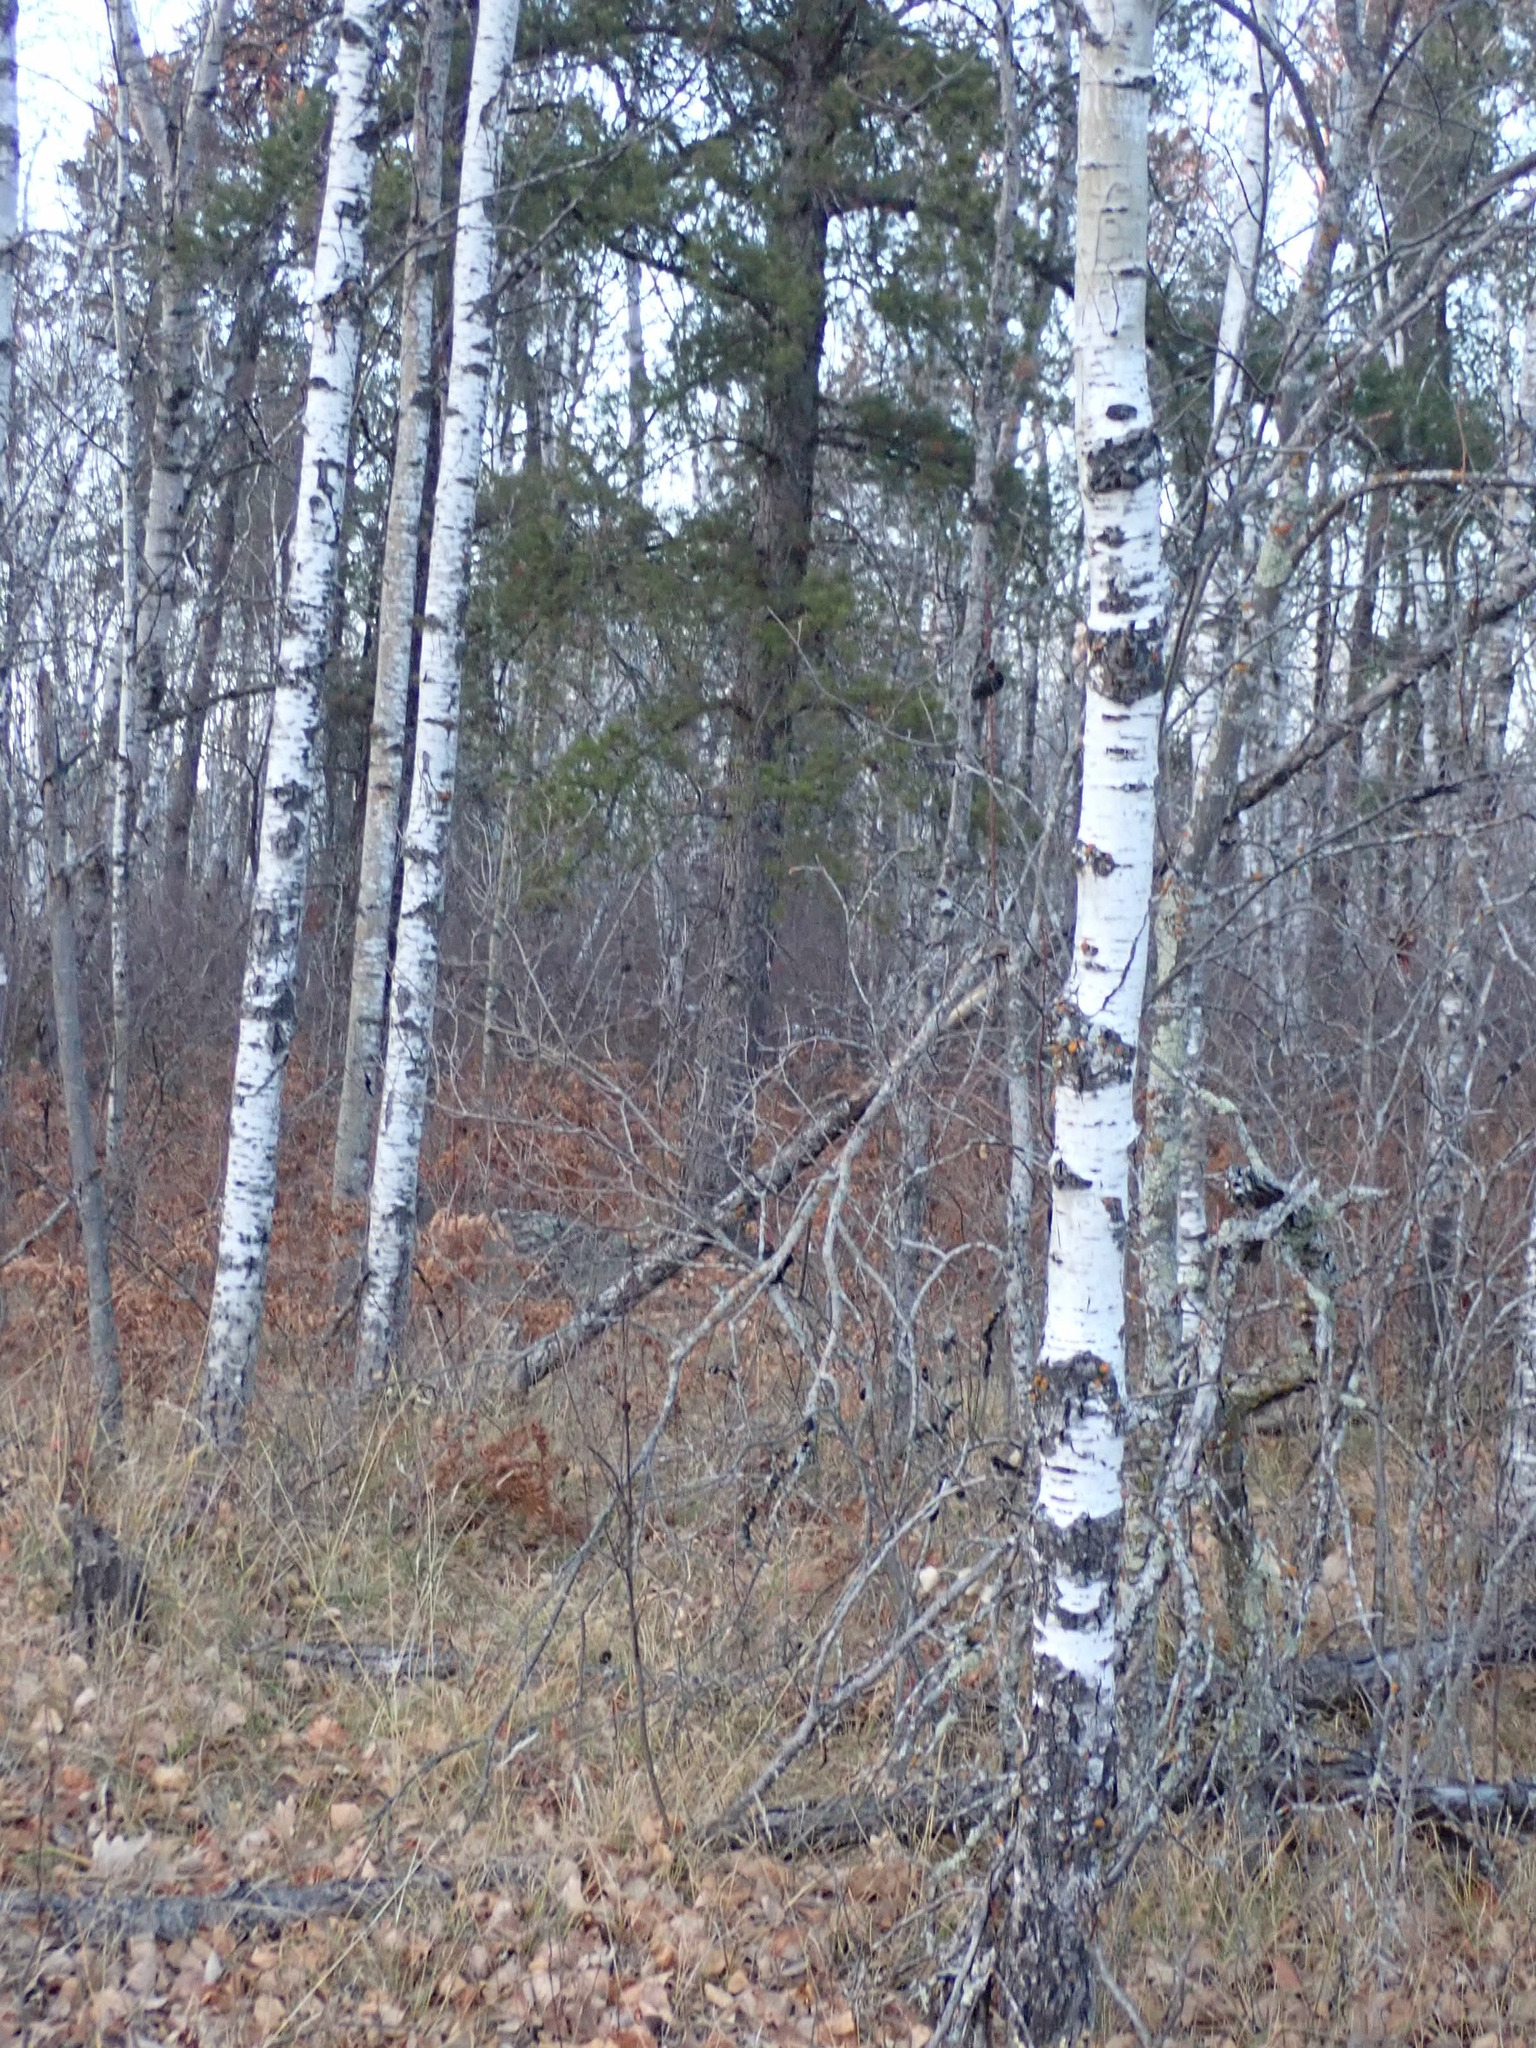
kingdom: Plantae
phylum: Tracheophyta
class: Magnoliopsida
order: Malpighiales
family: Salicaceae
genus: Populus
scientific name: Populus tremuloides
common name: Quaking aspen
